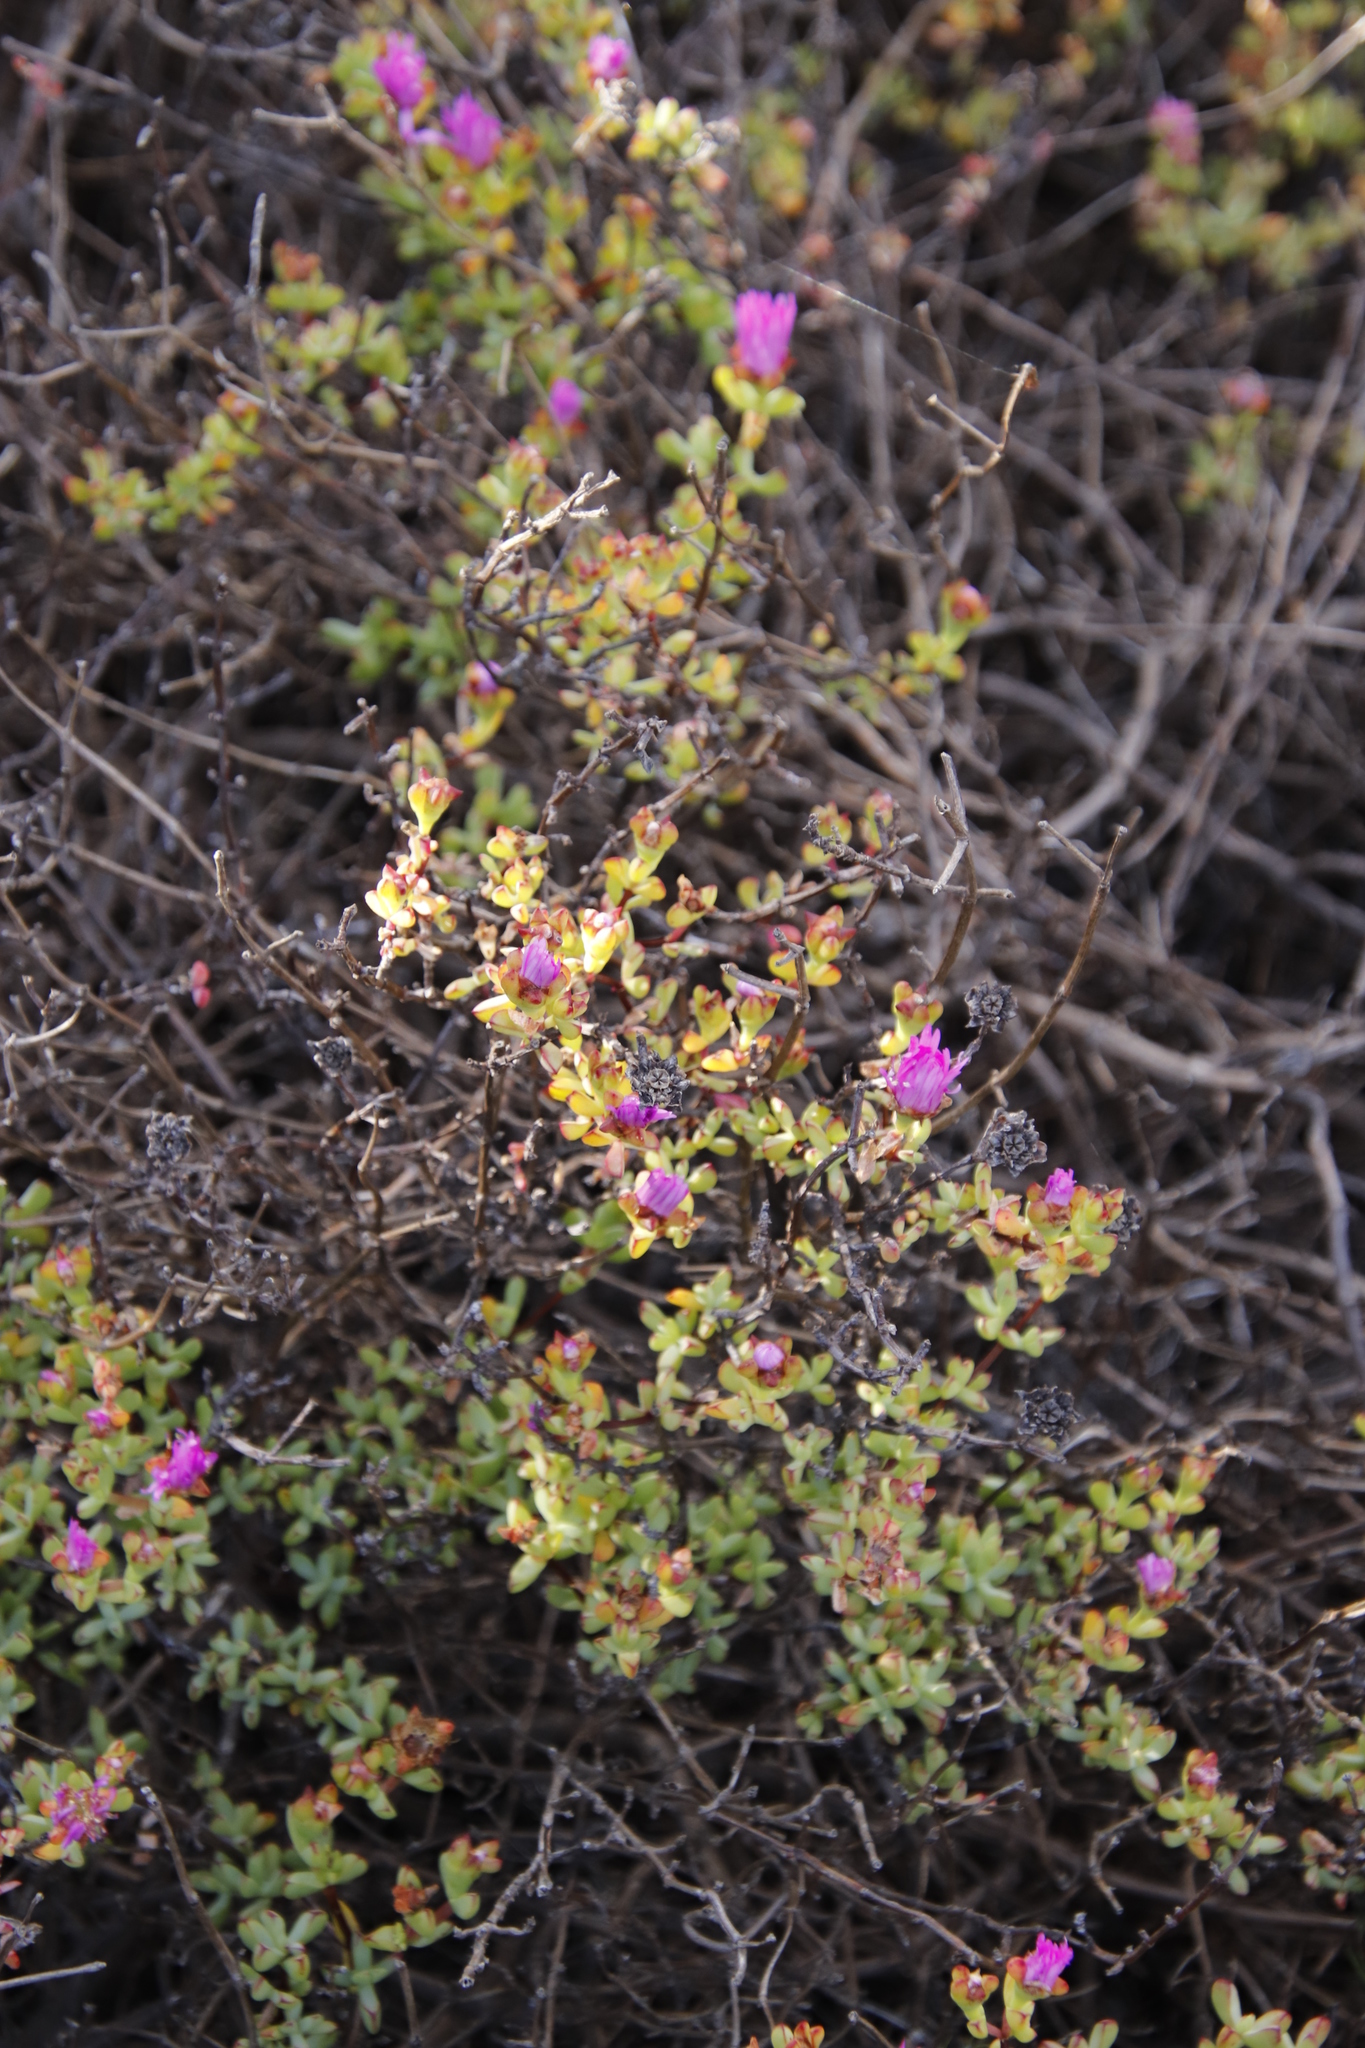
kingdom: Plantae
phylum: Tracheophyta
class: Magnoliopsida
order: Caryophyllales
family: Aizoaceae
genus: Oscularia
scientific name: Oscularia falciformis
